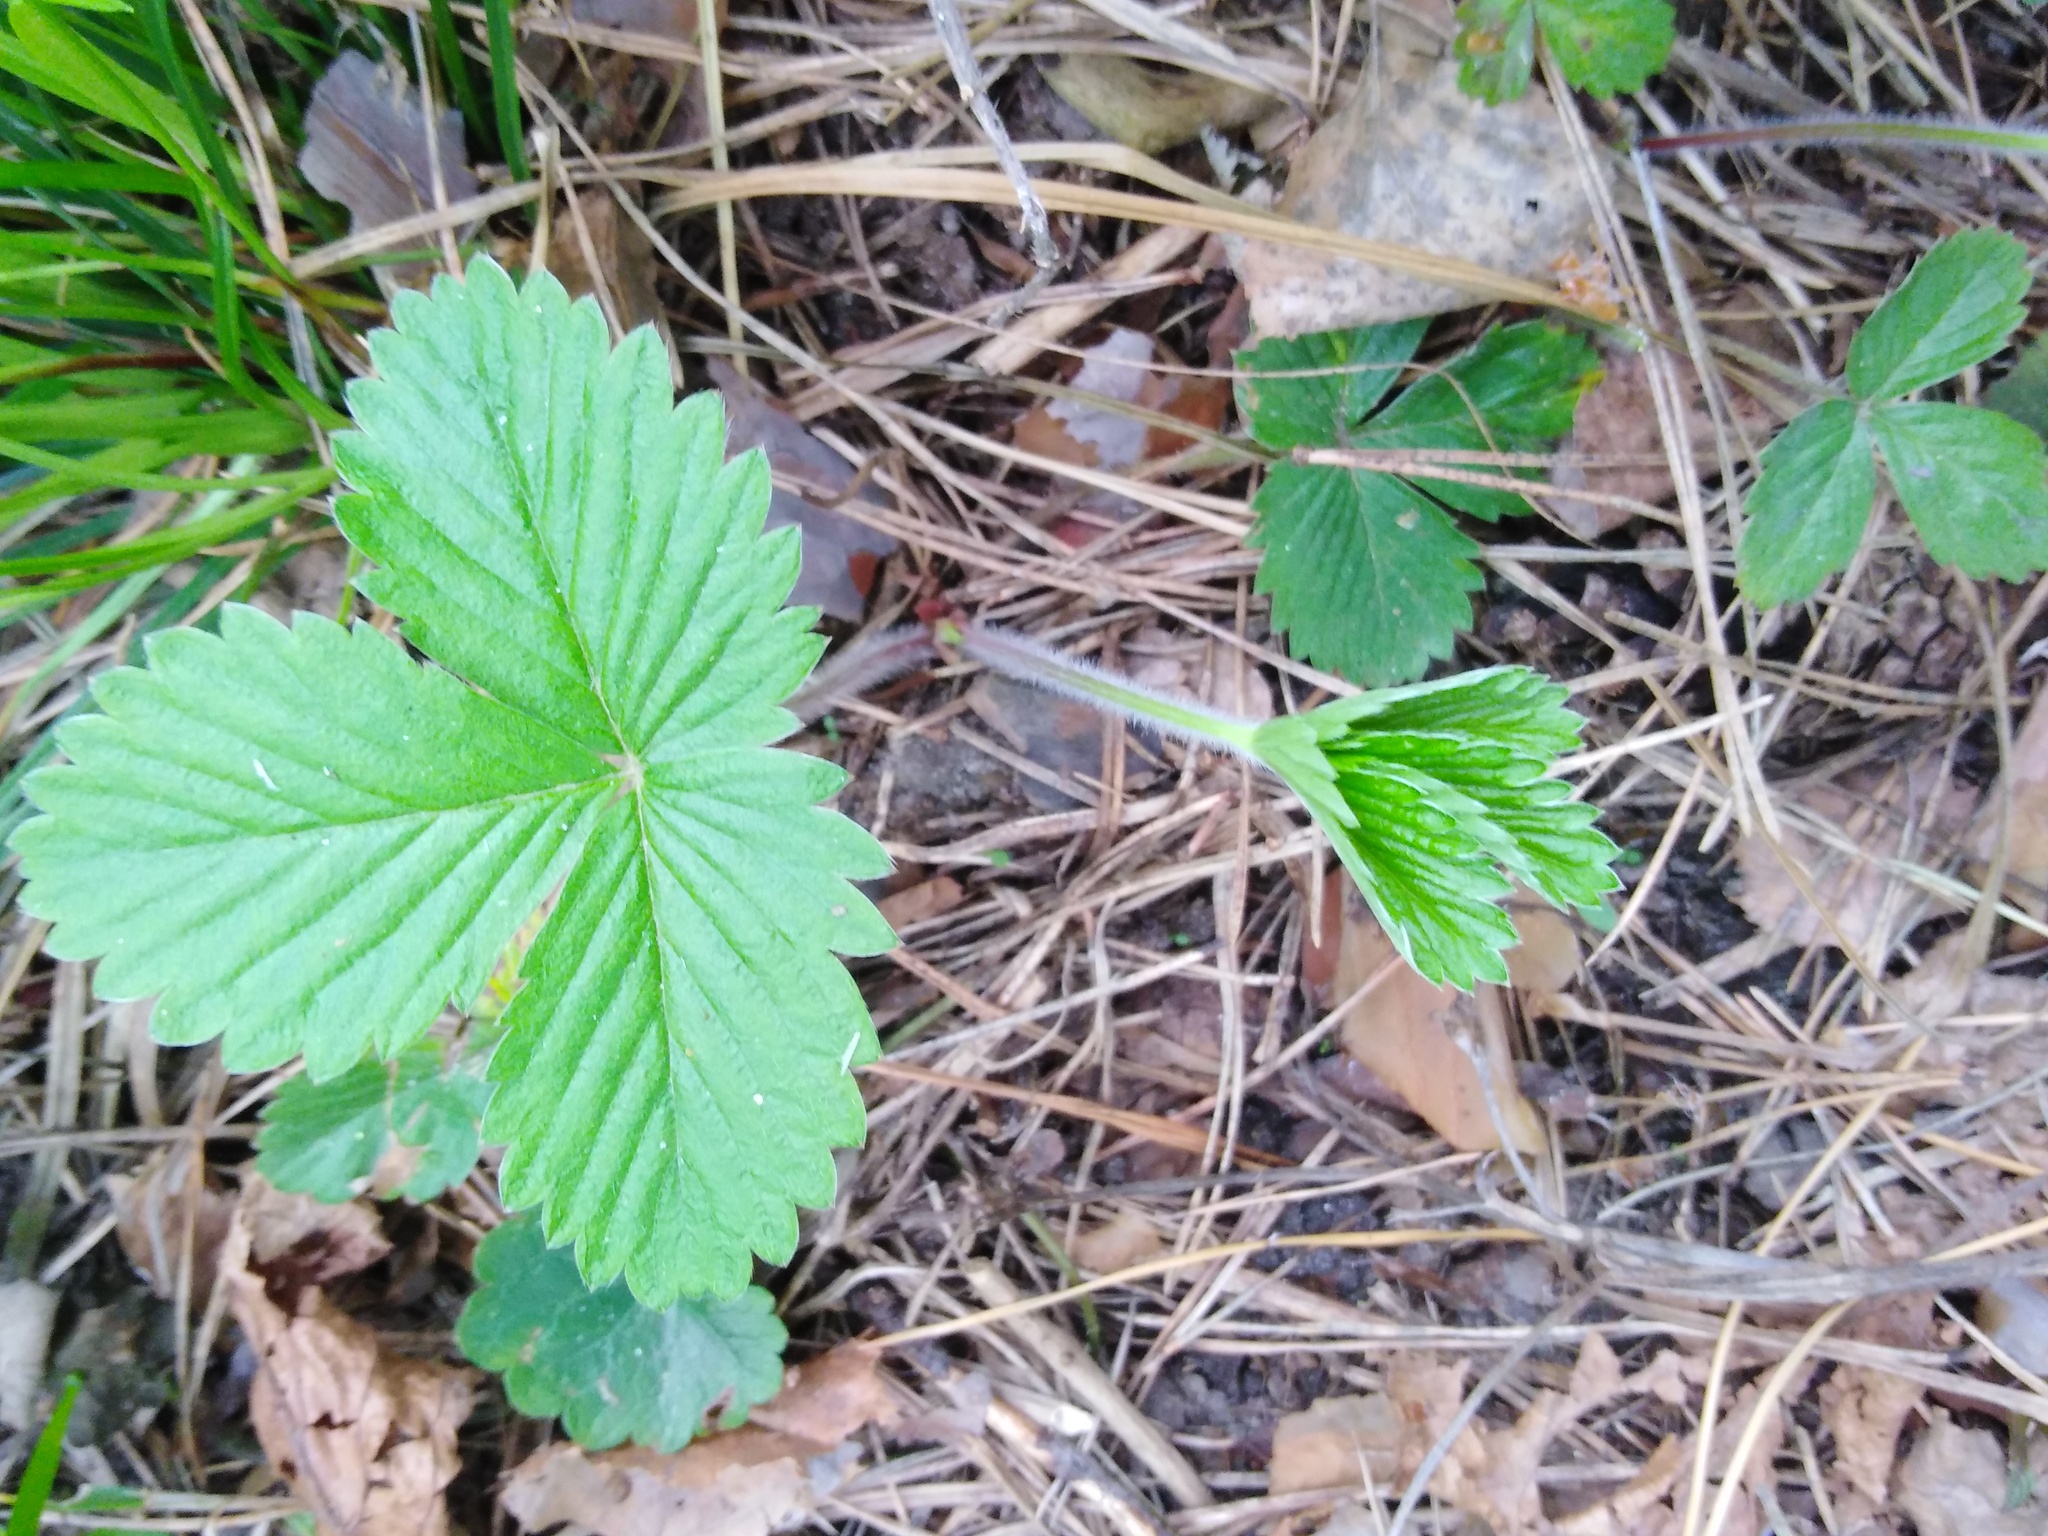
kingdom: Plantae
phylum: Tracheophyta
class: Magnoliopsida
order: Rosales
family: Rosaceae
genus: Fragaria
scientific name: Fragaria vesca
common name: Wild strawberry
